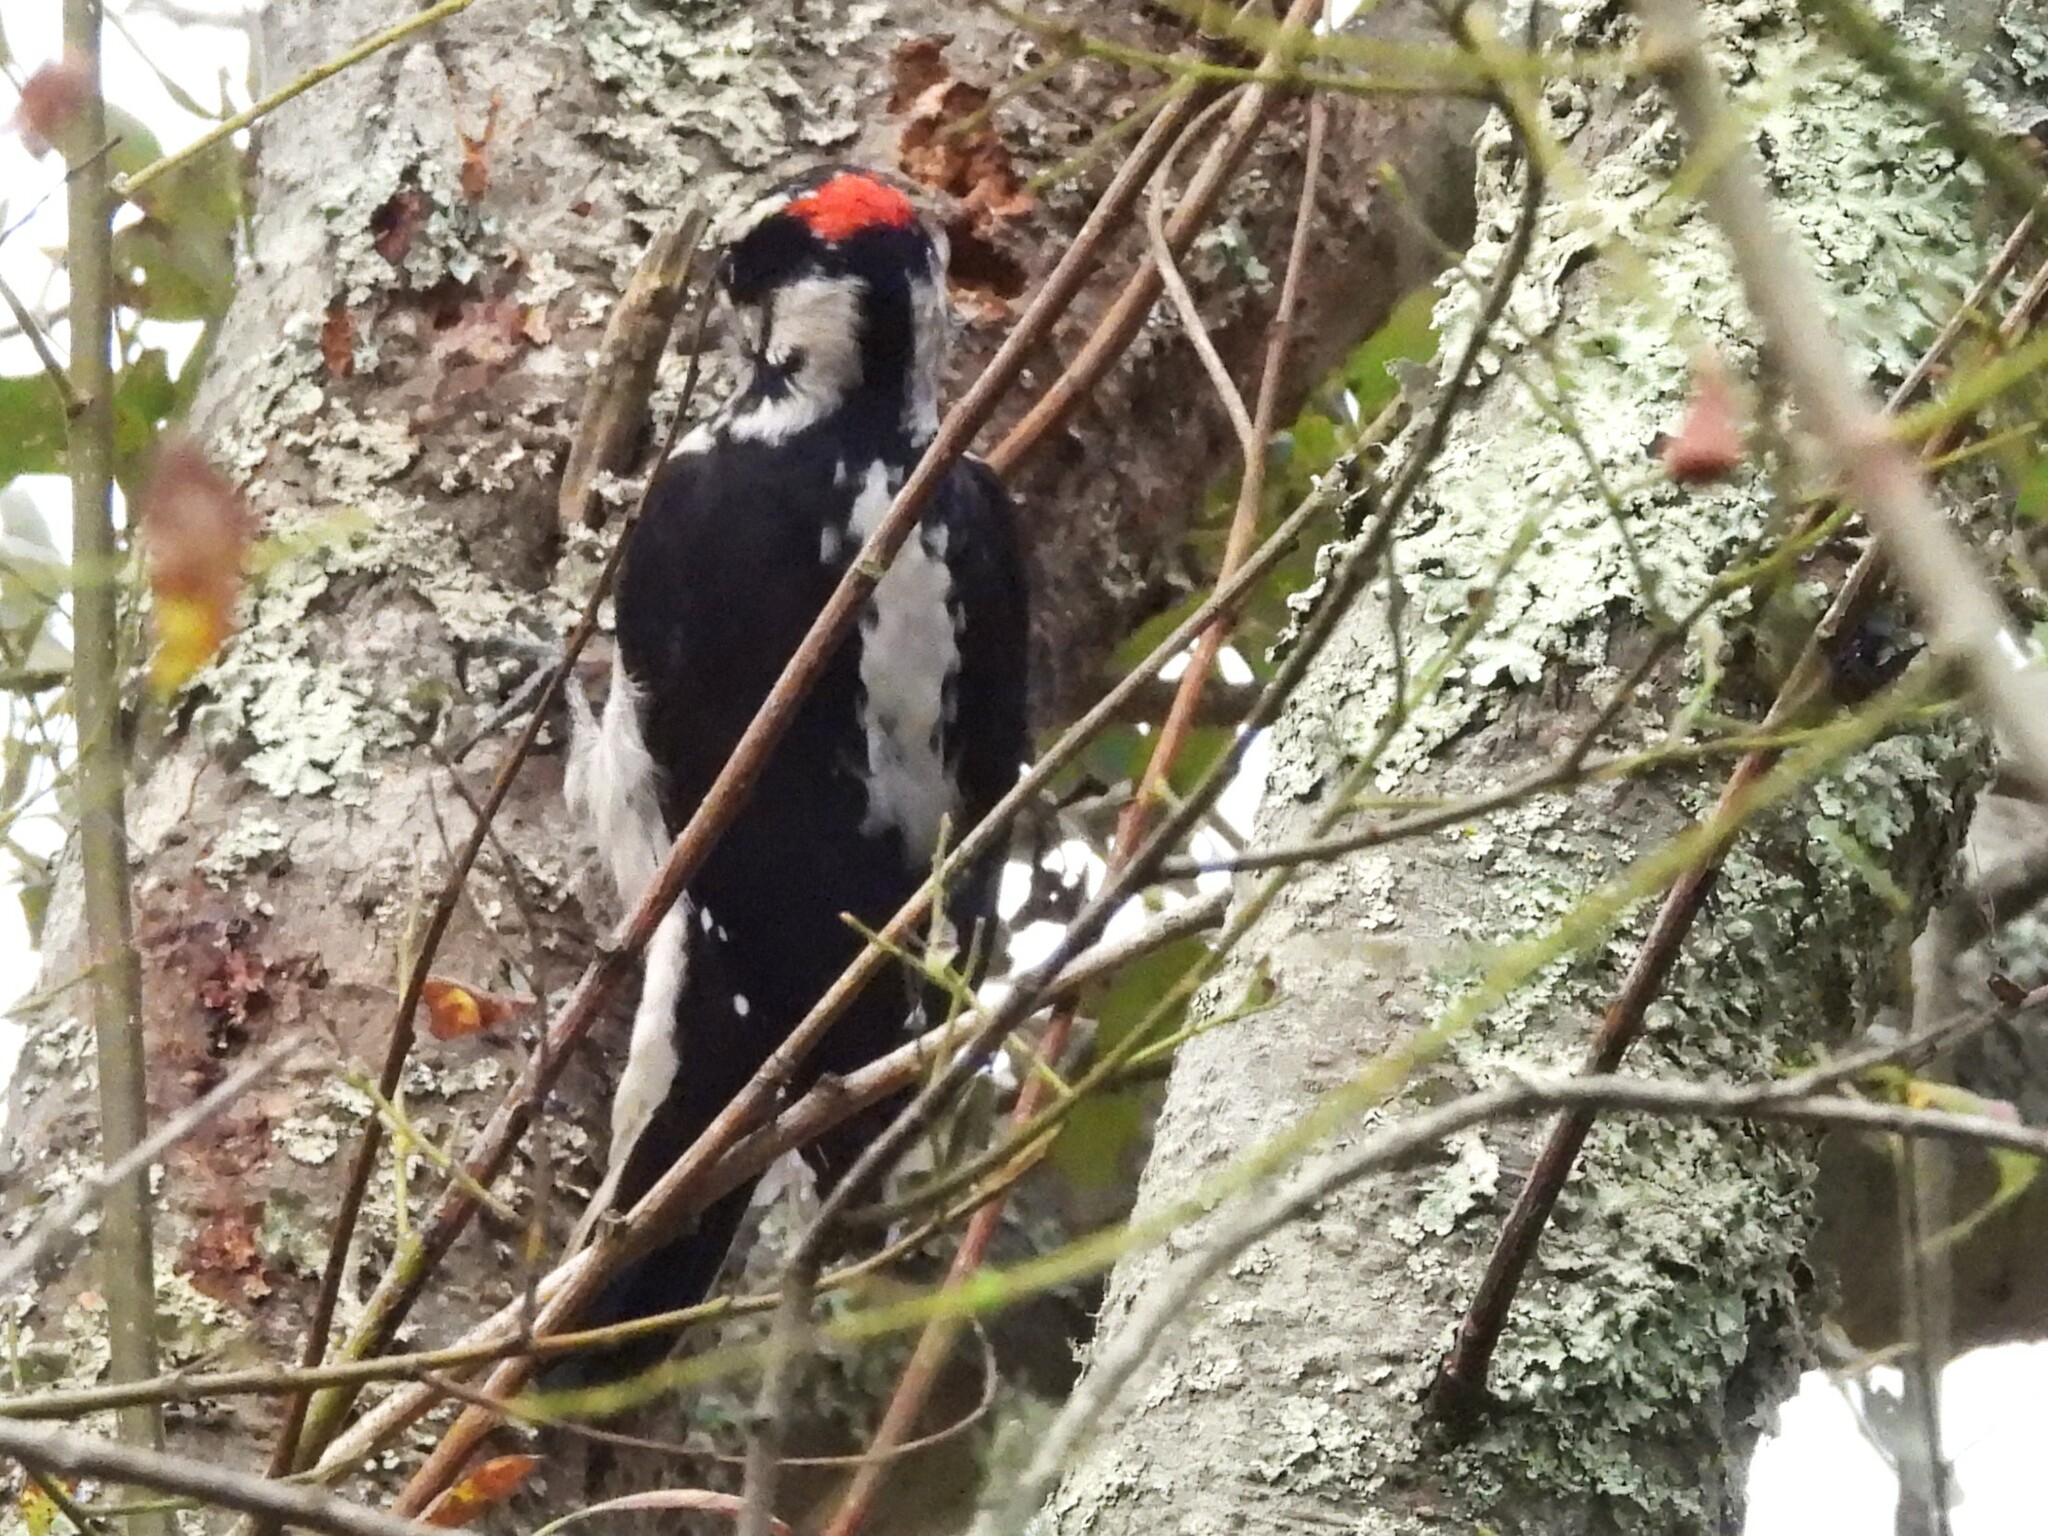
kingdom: Animalia
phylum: Chordata
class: Aves
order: Piciformes
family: Picidae
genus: Leuconotopicus
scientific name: Leuconotopicus villosus
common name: Hairy woodpecker
